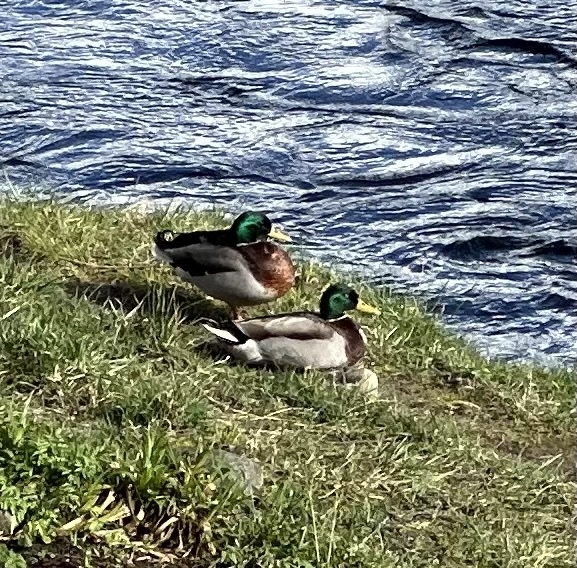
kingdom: Animalia
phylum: Chordata
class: Aves
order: Anseriformes
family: Anatidae
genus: Anas
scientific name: Anas platyrhynchos
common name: Mallard
